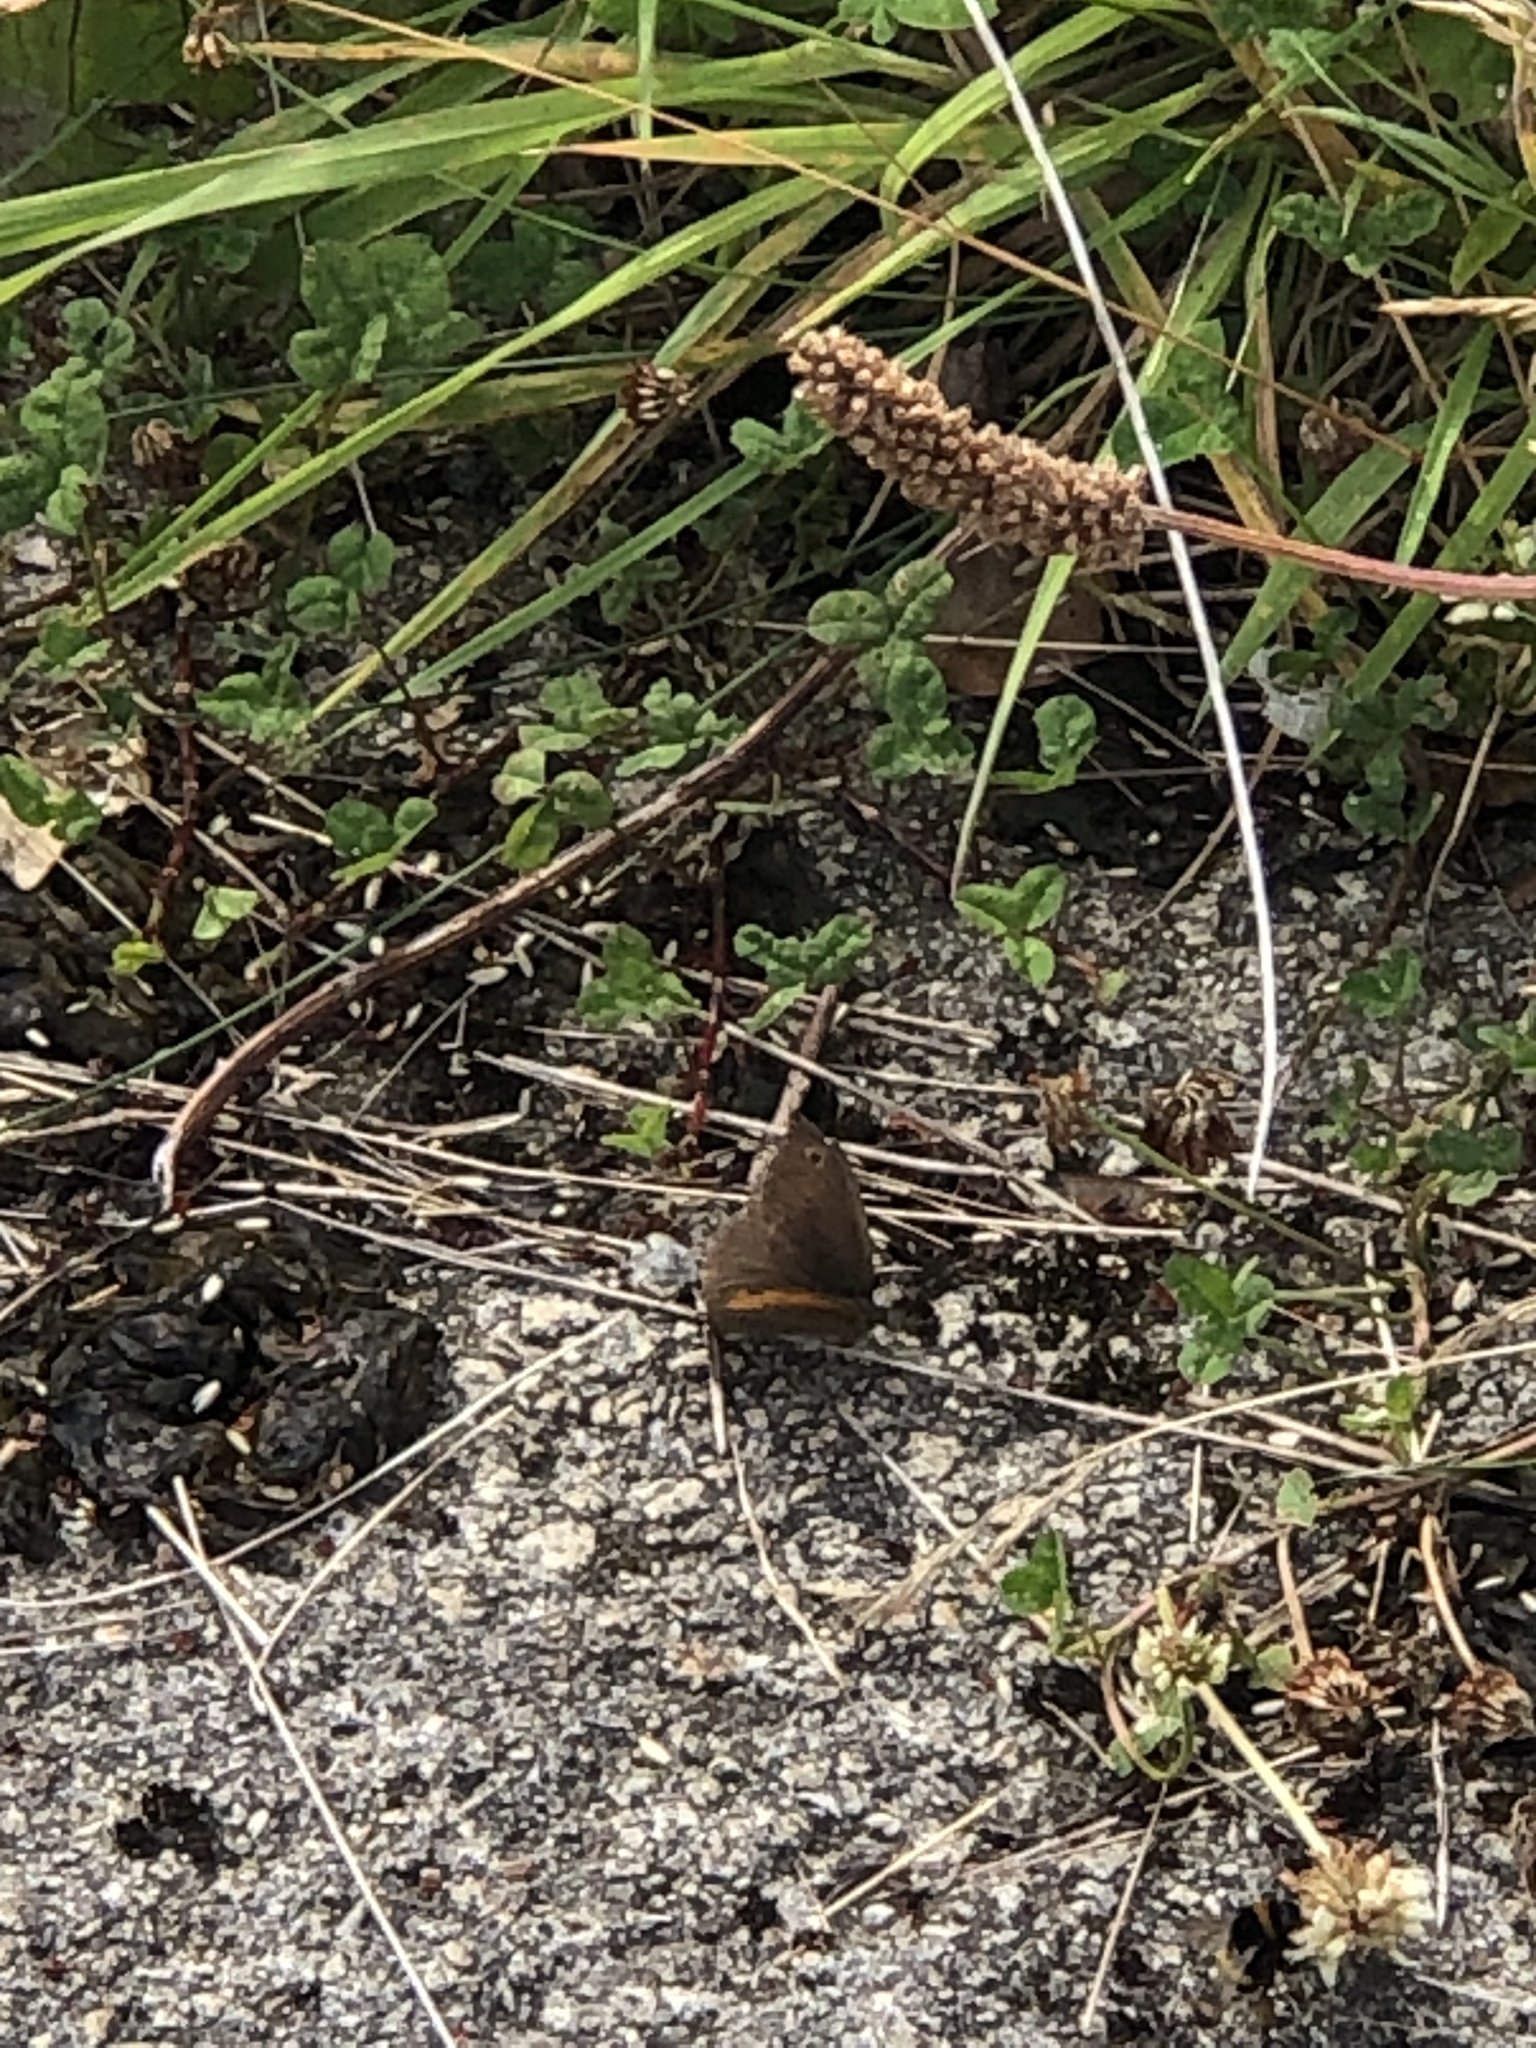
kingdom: Animalia
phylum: Arthropoda
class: Insecta
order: Lepidoptera
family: Nymphalidae
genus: Maniola
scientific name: Maniola jurtina
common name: Meadow brown
